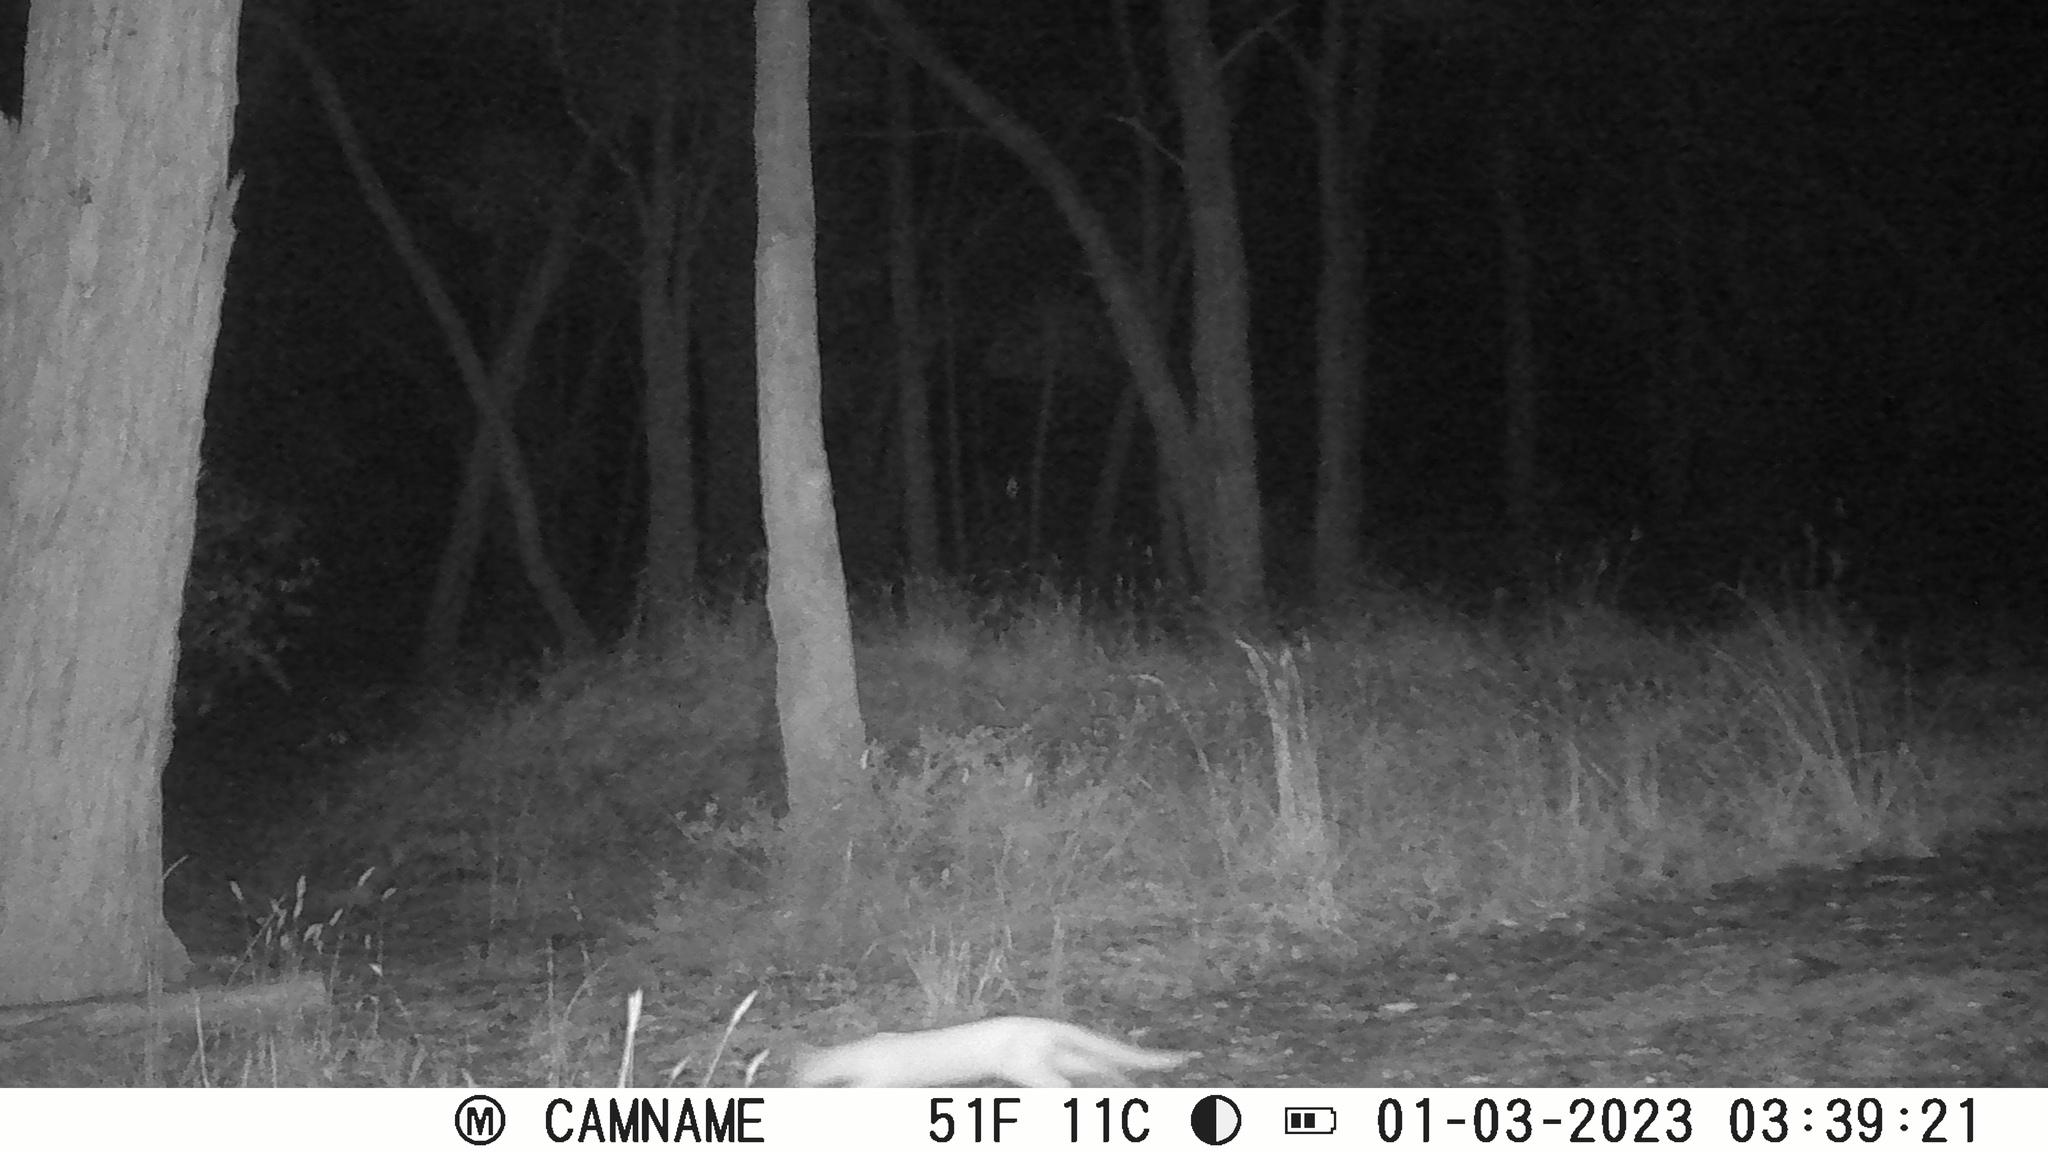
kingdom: Animalia
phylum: Chordata
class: Mammalia
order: Carnivora
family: Felidae
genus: Felis
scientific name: Felis catus
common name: Domestic cat
